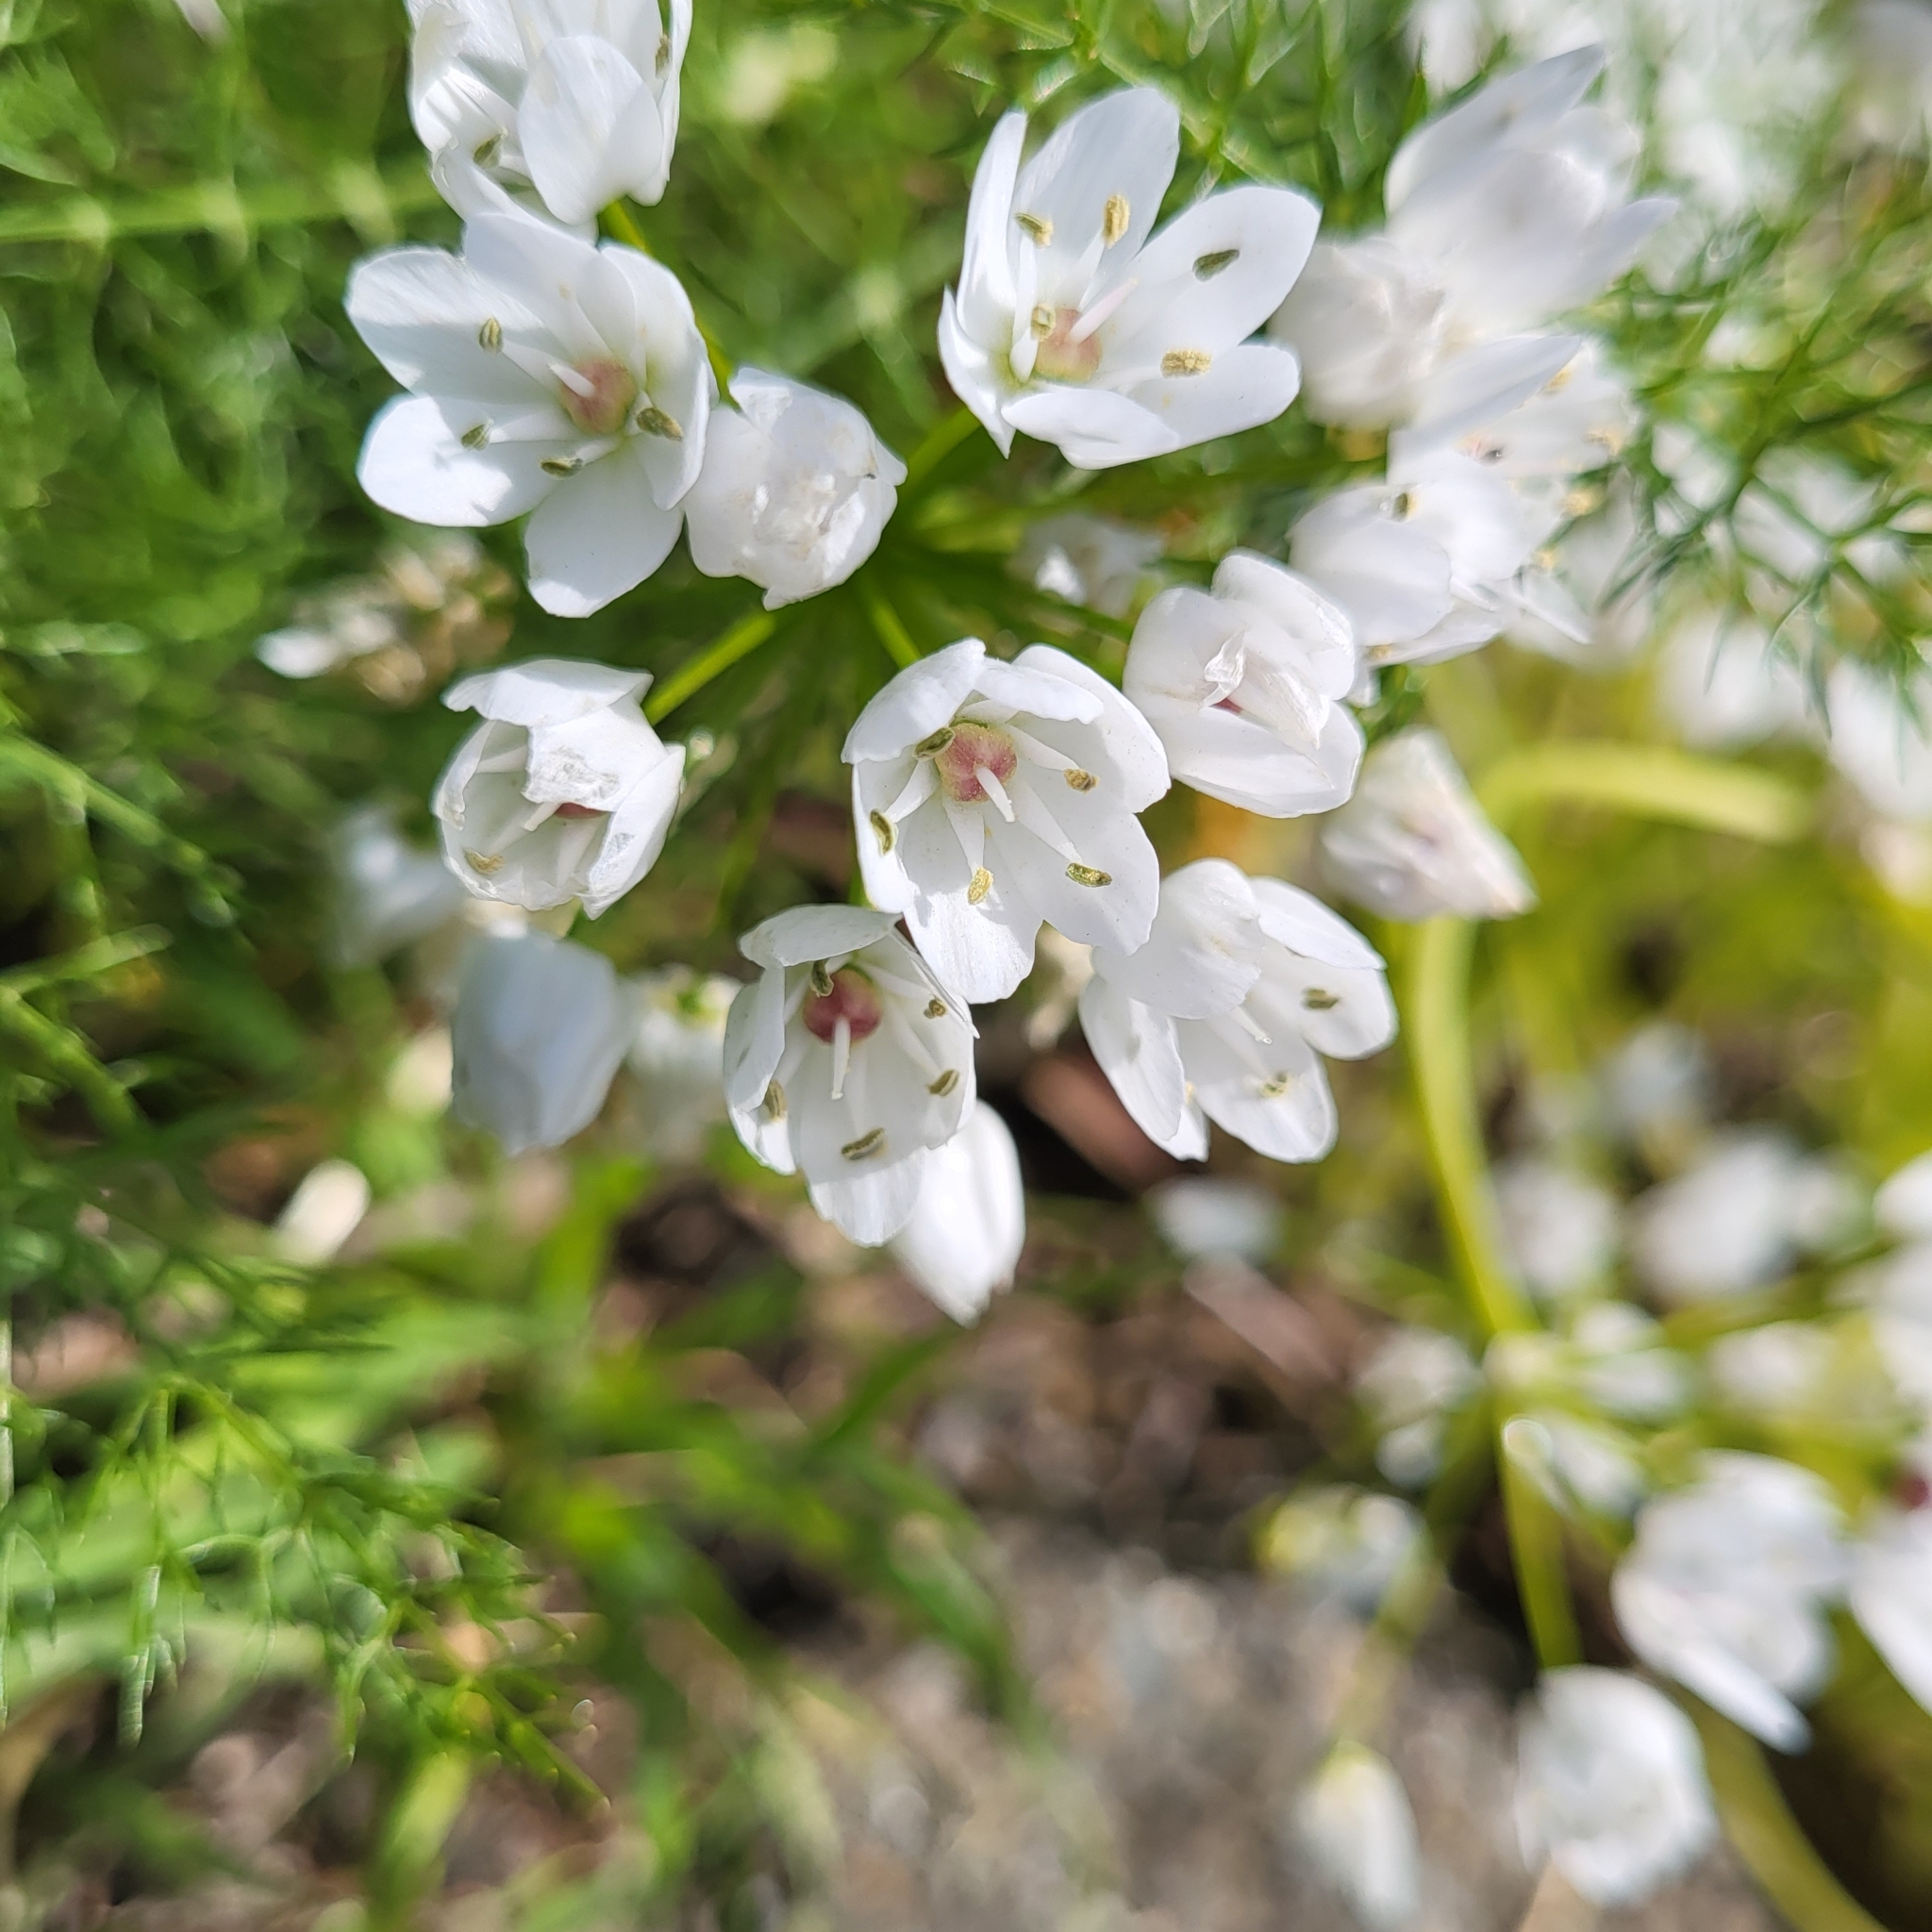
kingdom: Plantae
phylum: Tracheophyta
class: Liliopsida
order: Asparagales
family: Amaryllidaceae
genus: Allium
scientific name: Allium neapolitanum
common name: Neapolitan garlic
